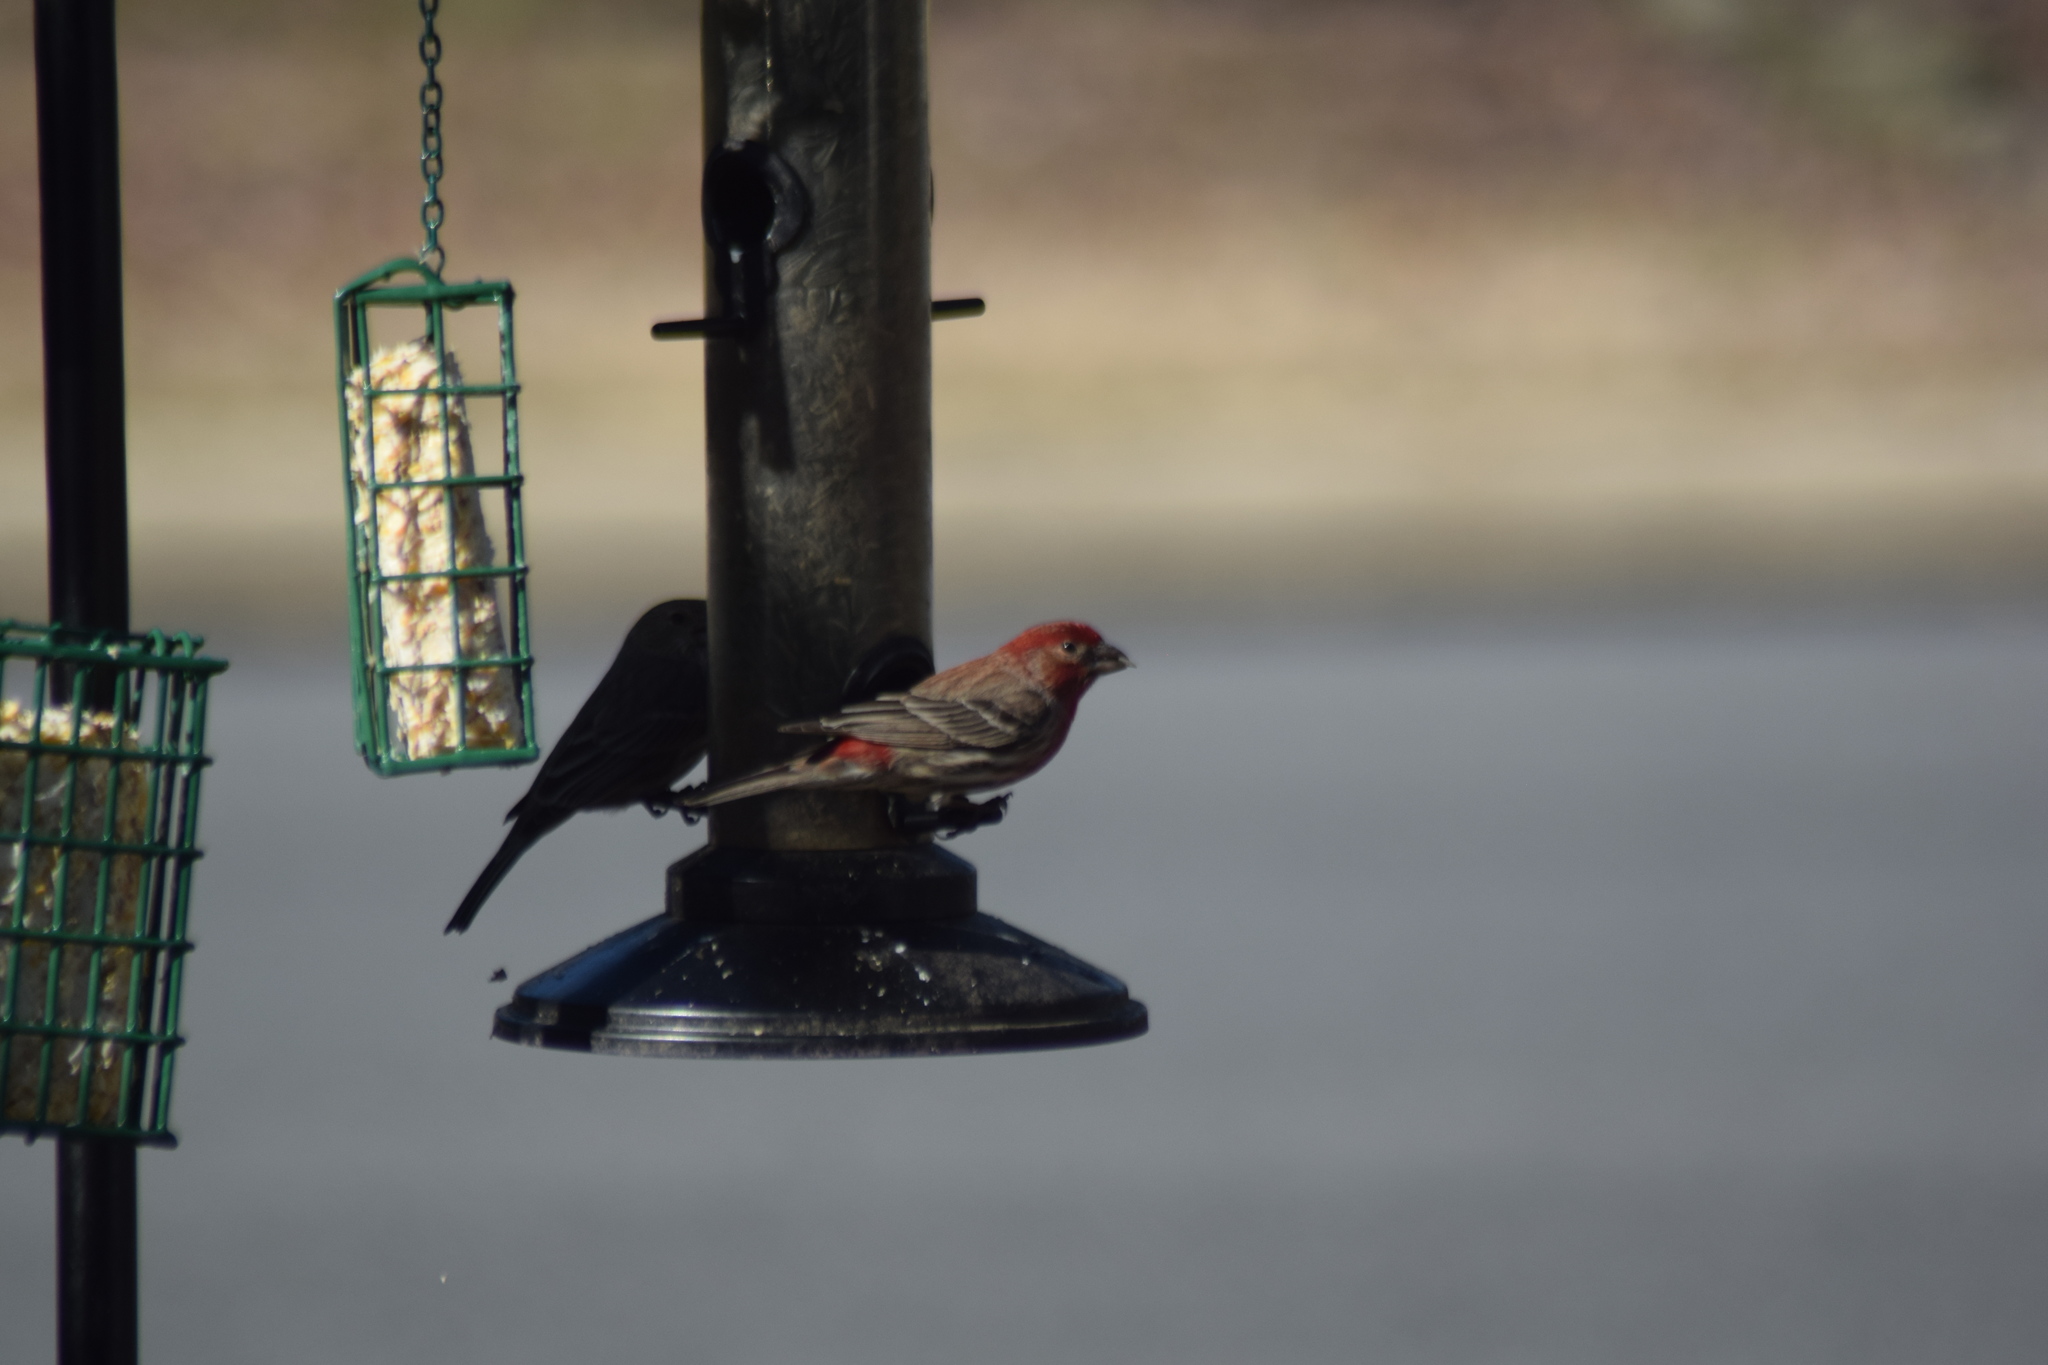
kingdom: Animalia
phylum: Chordata
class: Aves
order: Passeriformes
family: Fringillidae
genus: Haemorhous
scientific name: Haemorhous mexicanus
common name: House finch
